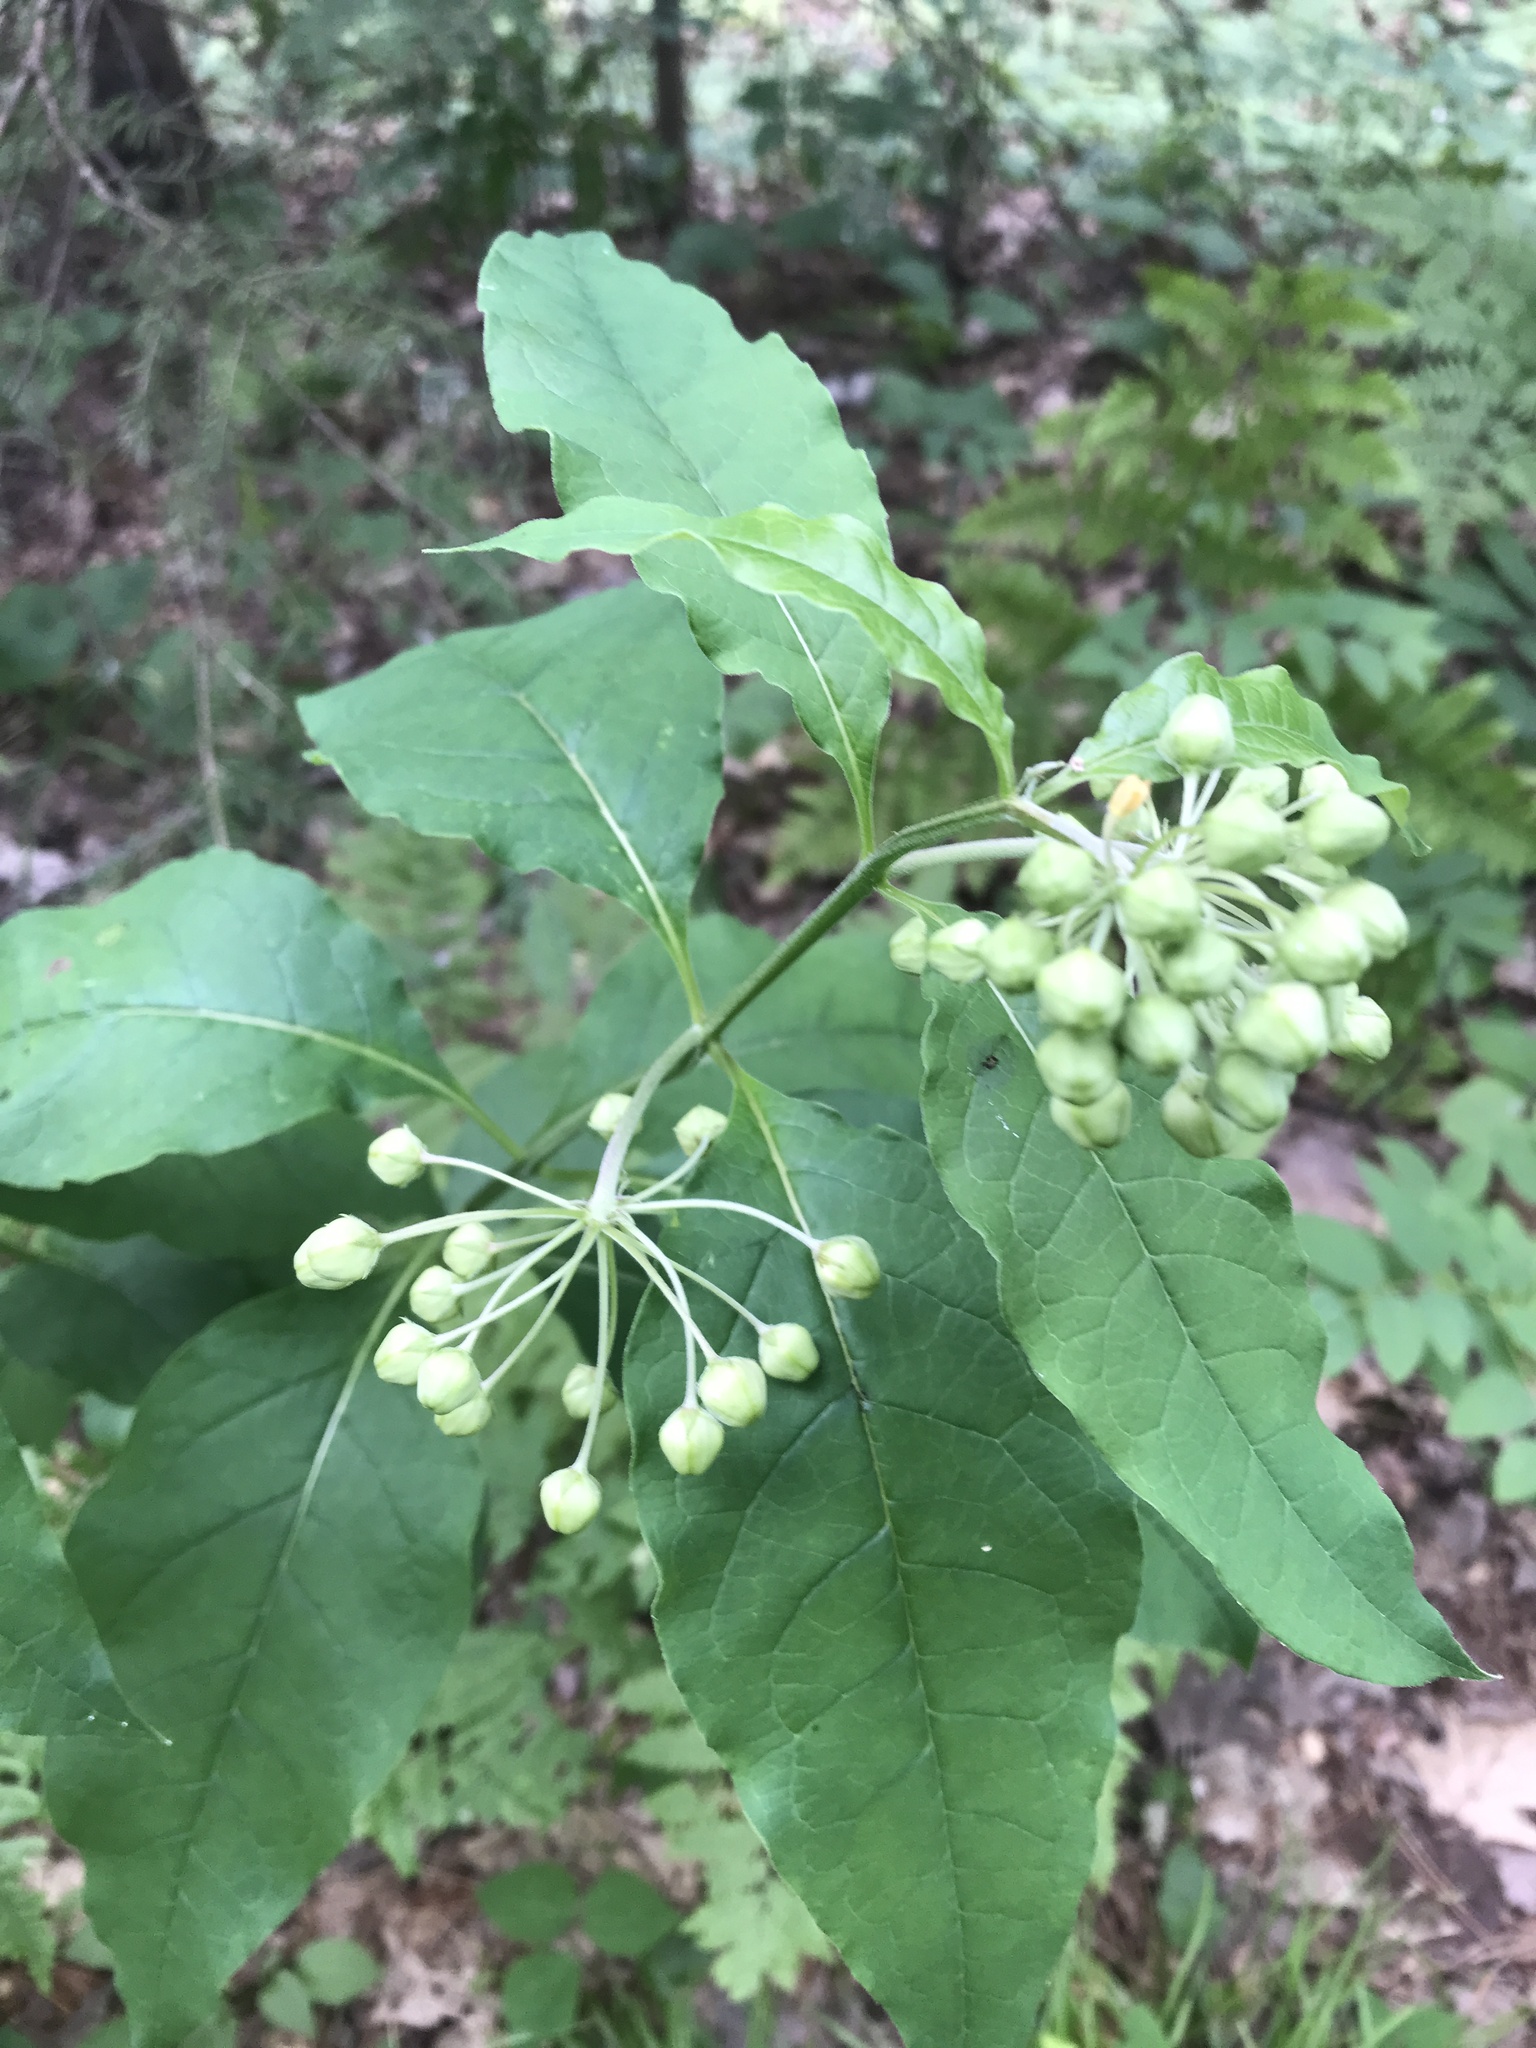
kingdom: Plantae
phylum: Tracheophyta
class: Magnoliopsida
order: Gentianales
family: Apocynaceae
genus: Asclepias
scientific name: Asclepias exaltata
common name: Poke milkweed
